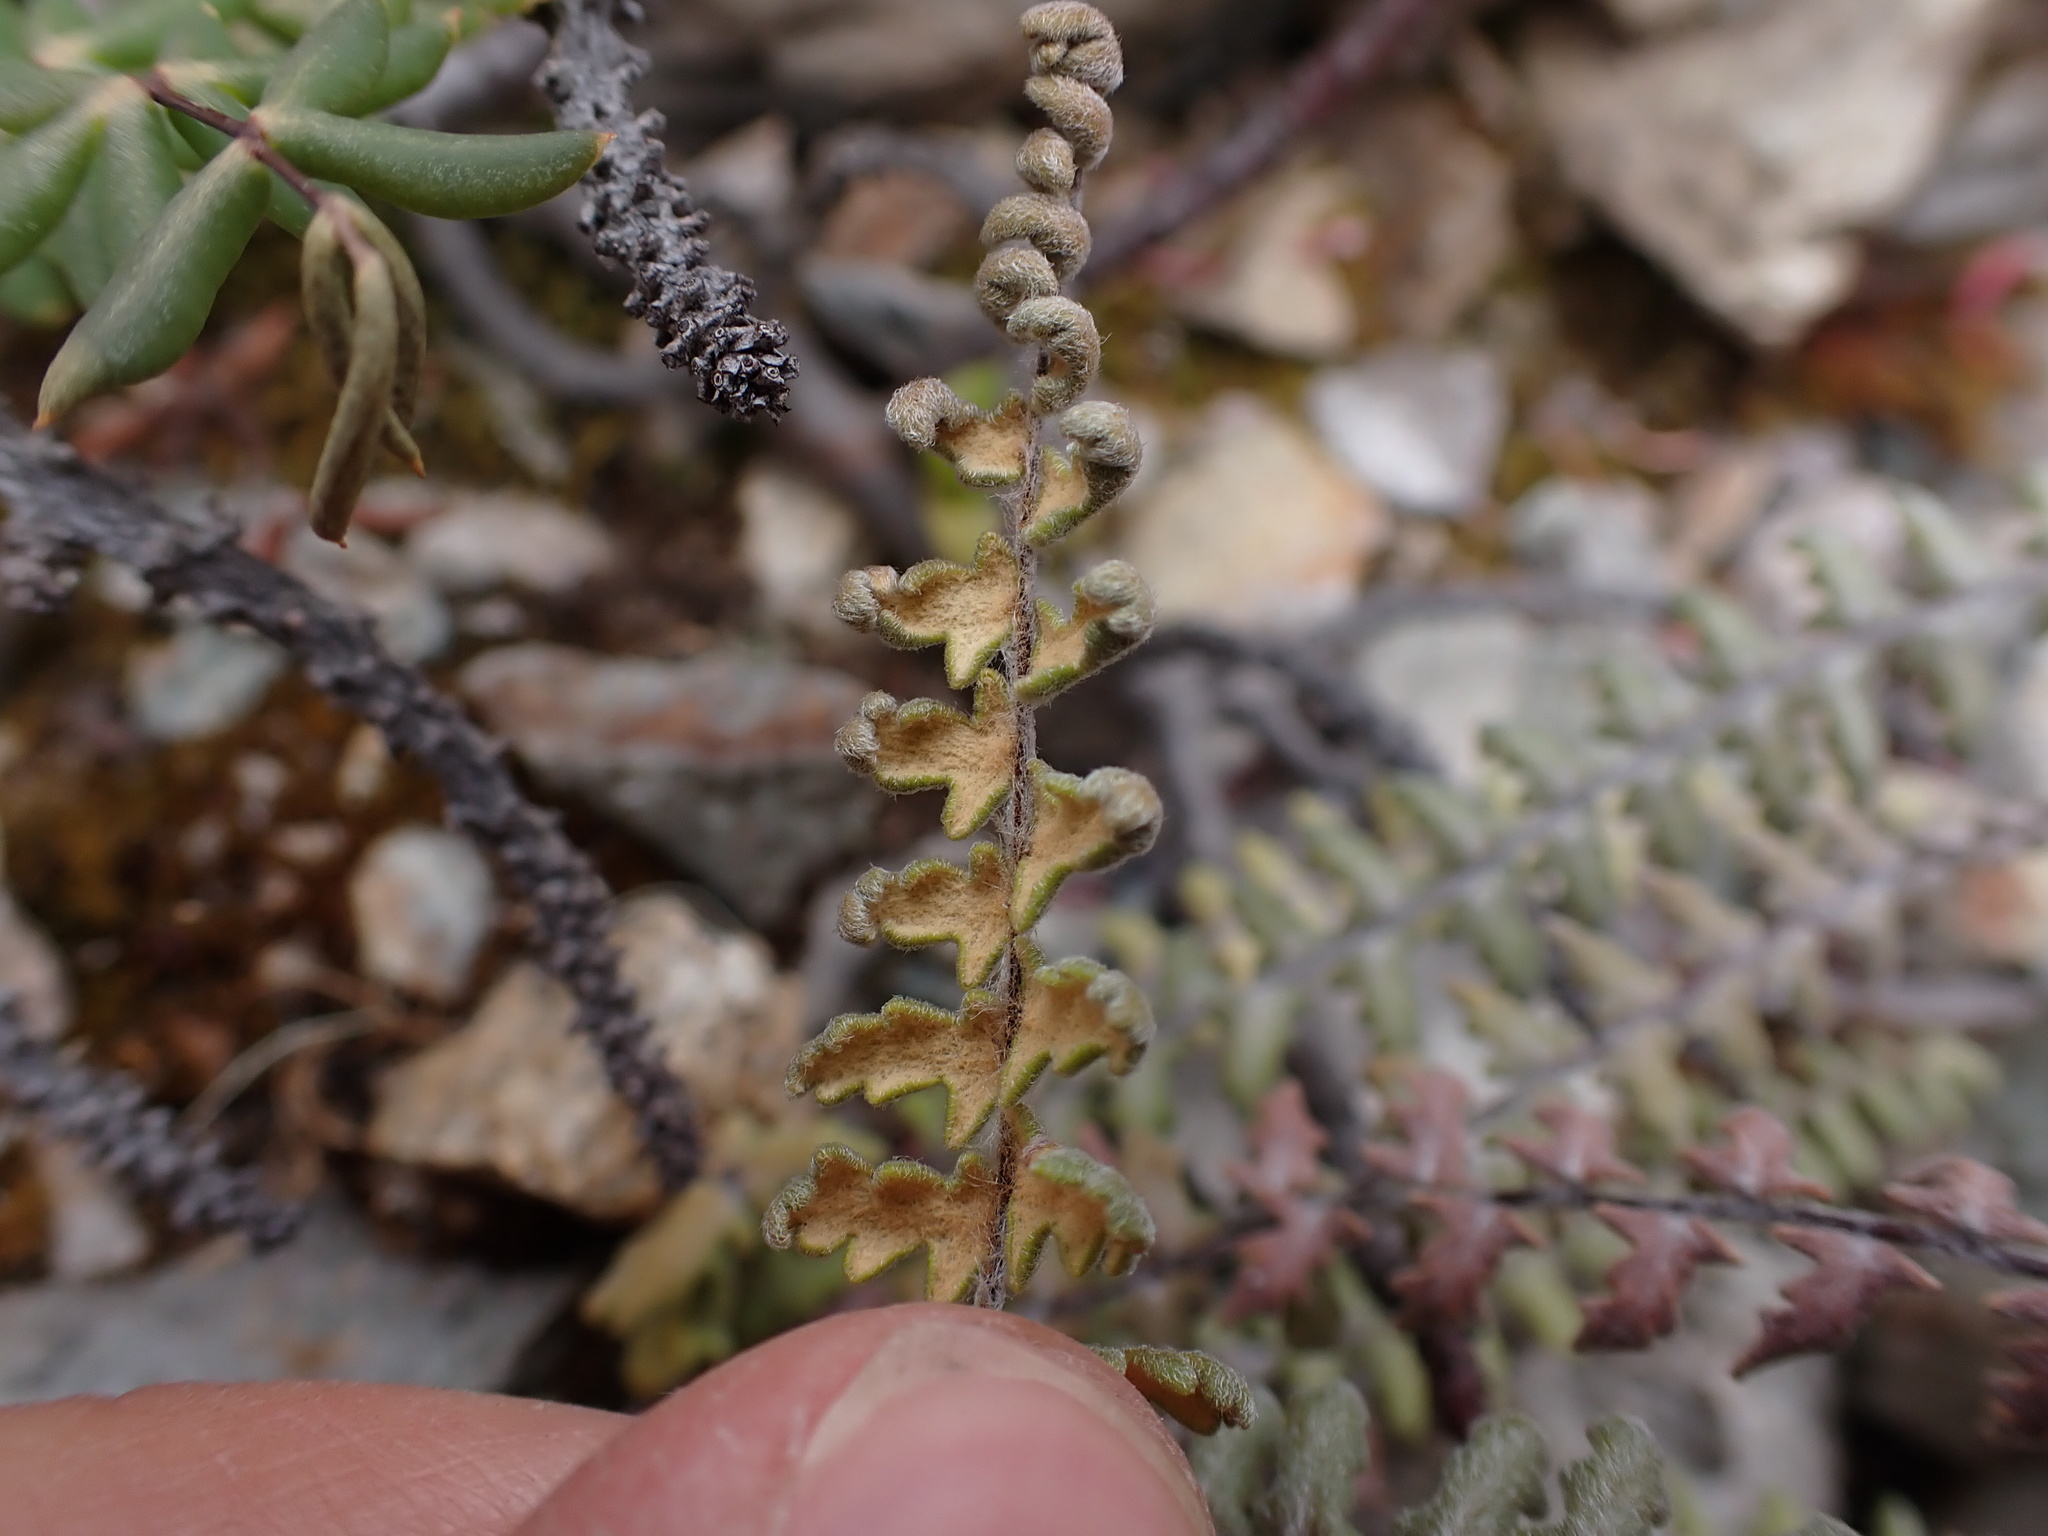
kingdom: Plantae
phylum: Tracheophyta
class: Polypodiopsida
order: Polypodiales
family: Pteridaceae
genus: Myriopteris
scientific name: Myriopteris aurea
